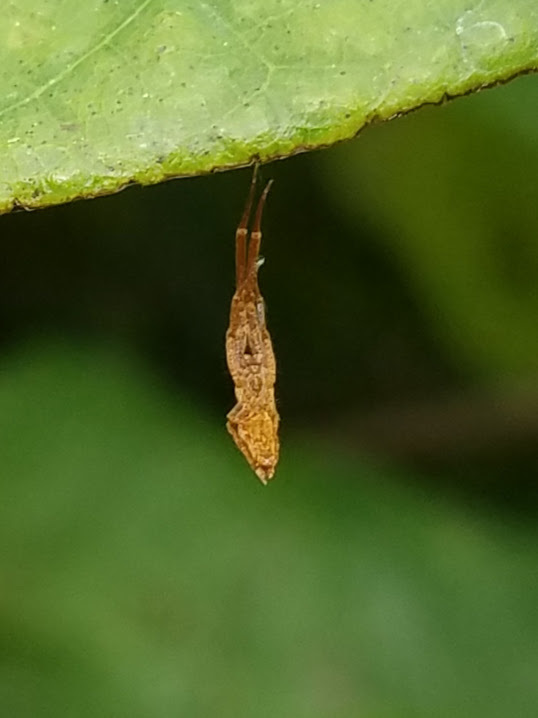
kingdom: Animalia
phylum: Arthropoda
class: Arachnida
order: Araneae
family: Uloboridae
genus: Uloborus
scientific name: Uloborus glomosus
